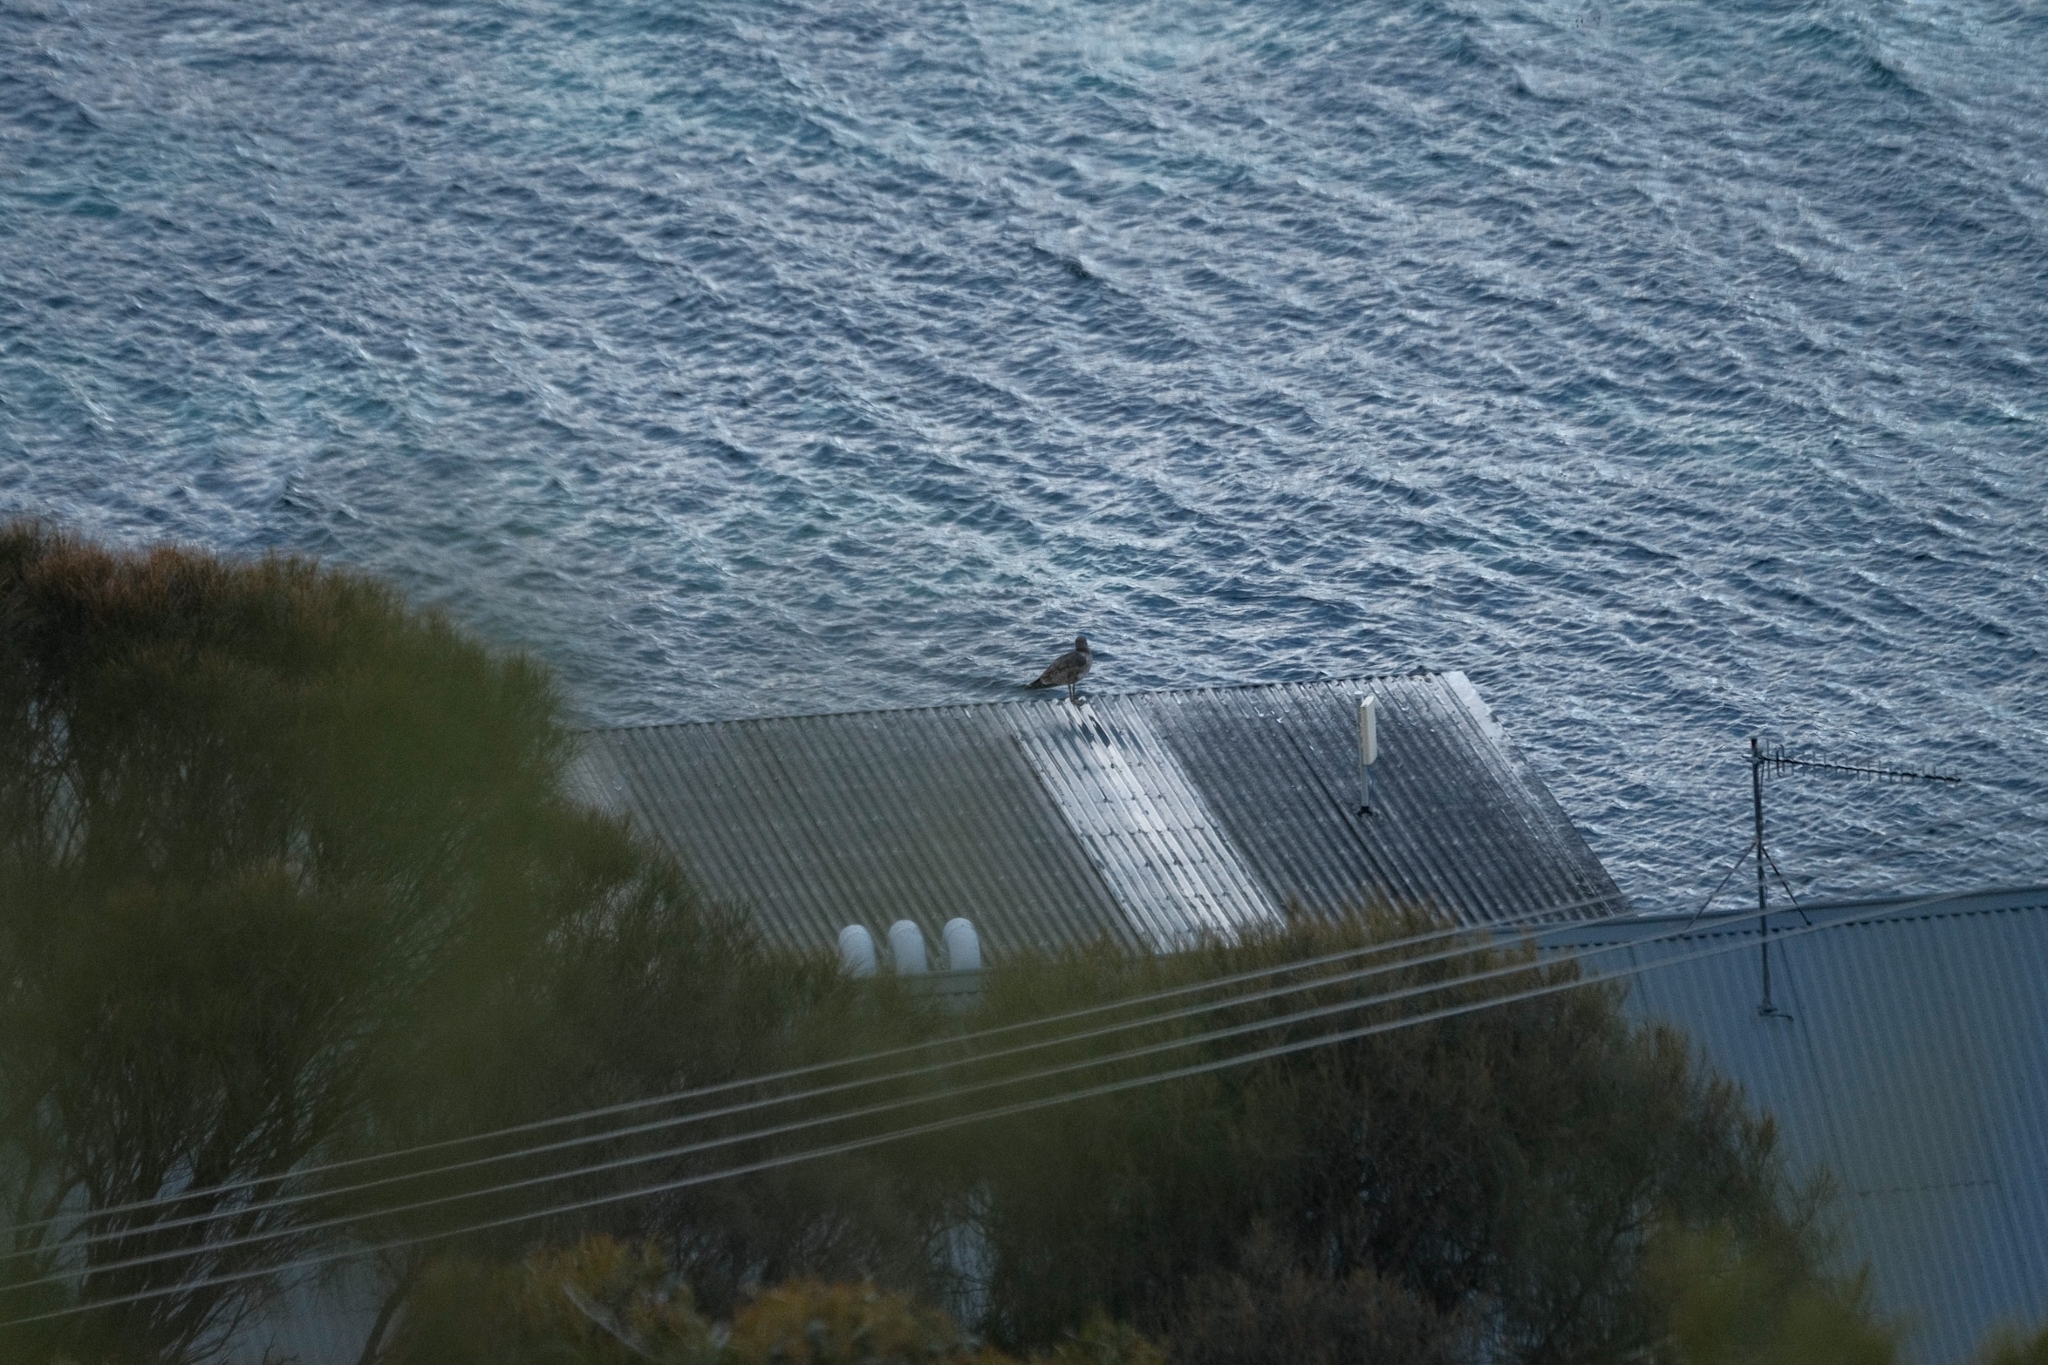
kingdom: Animalia
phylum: Chordata
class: Aves
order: Charadriiformes
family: Laridae
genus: Larus
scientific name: Larus pacificus
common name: Pacific gull
